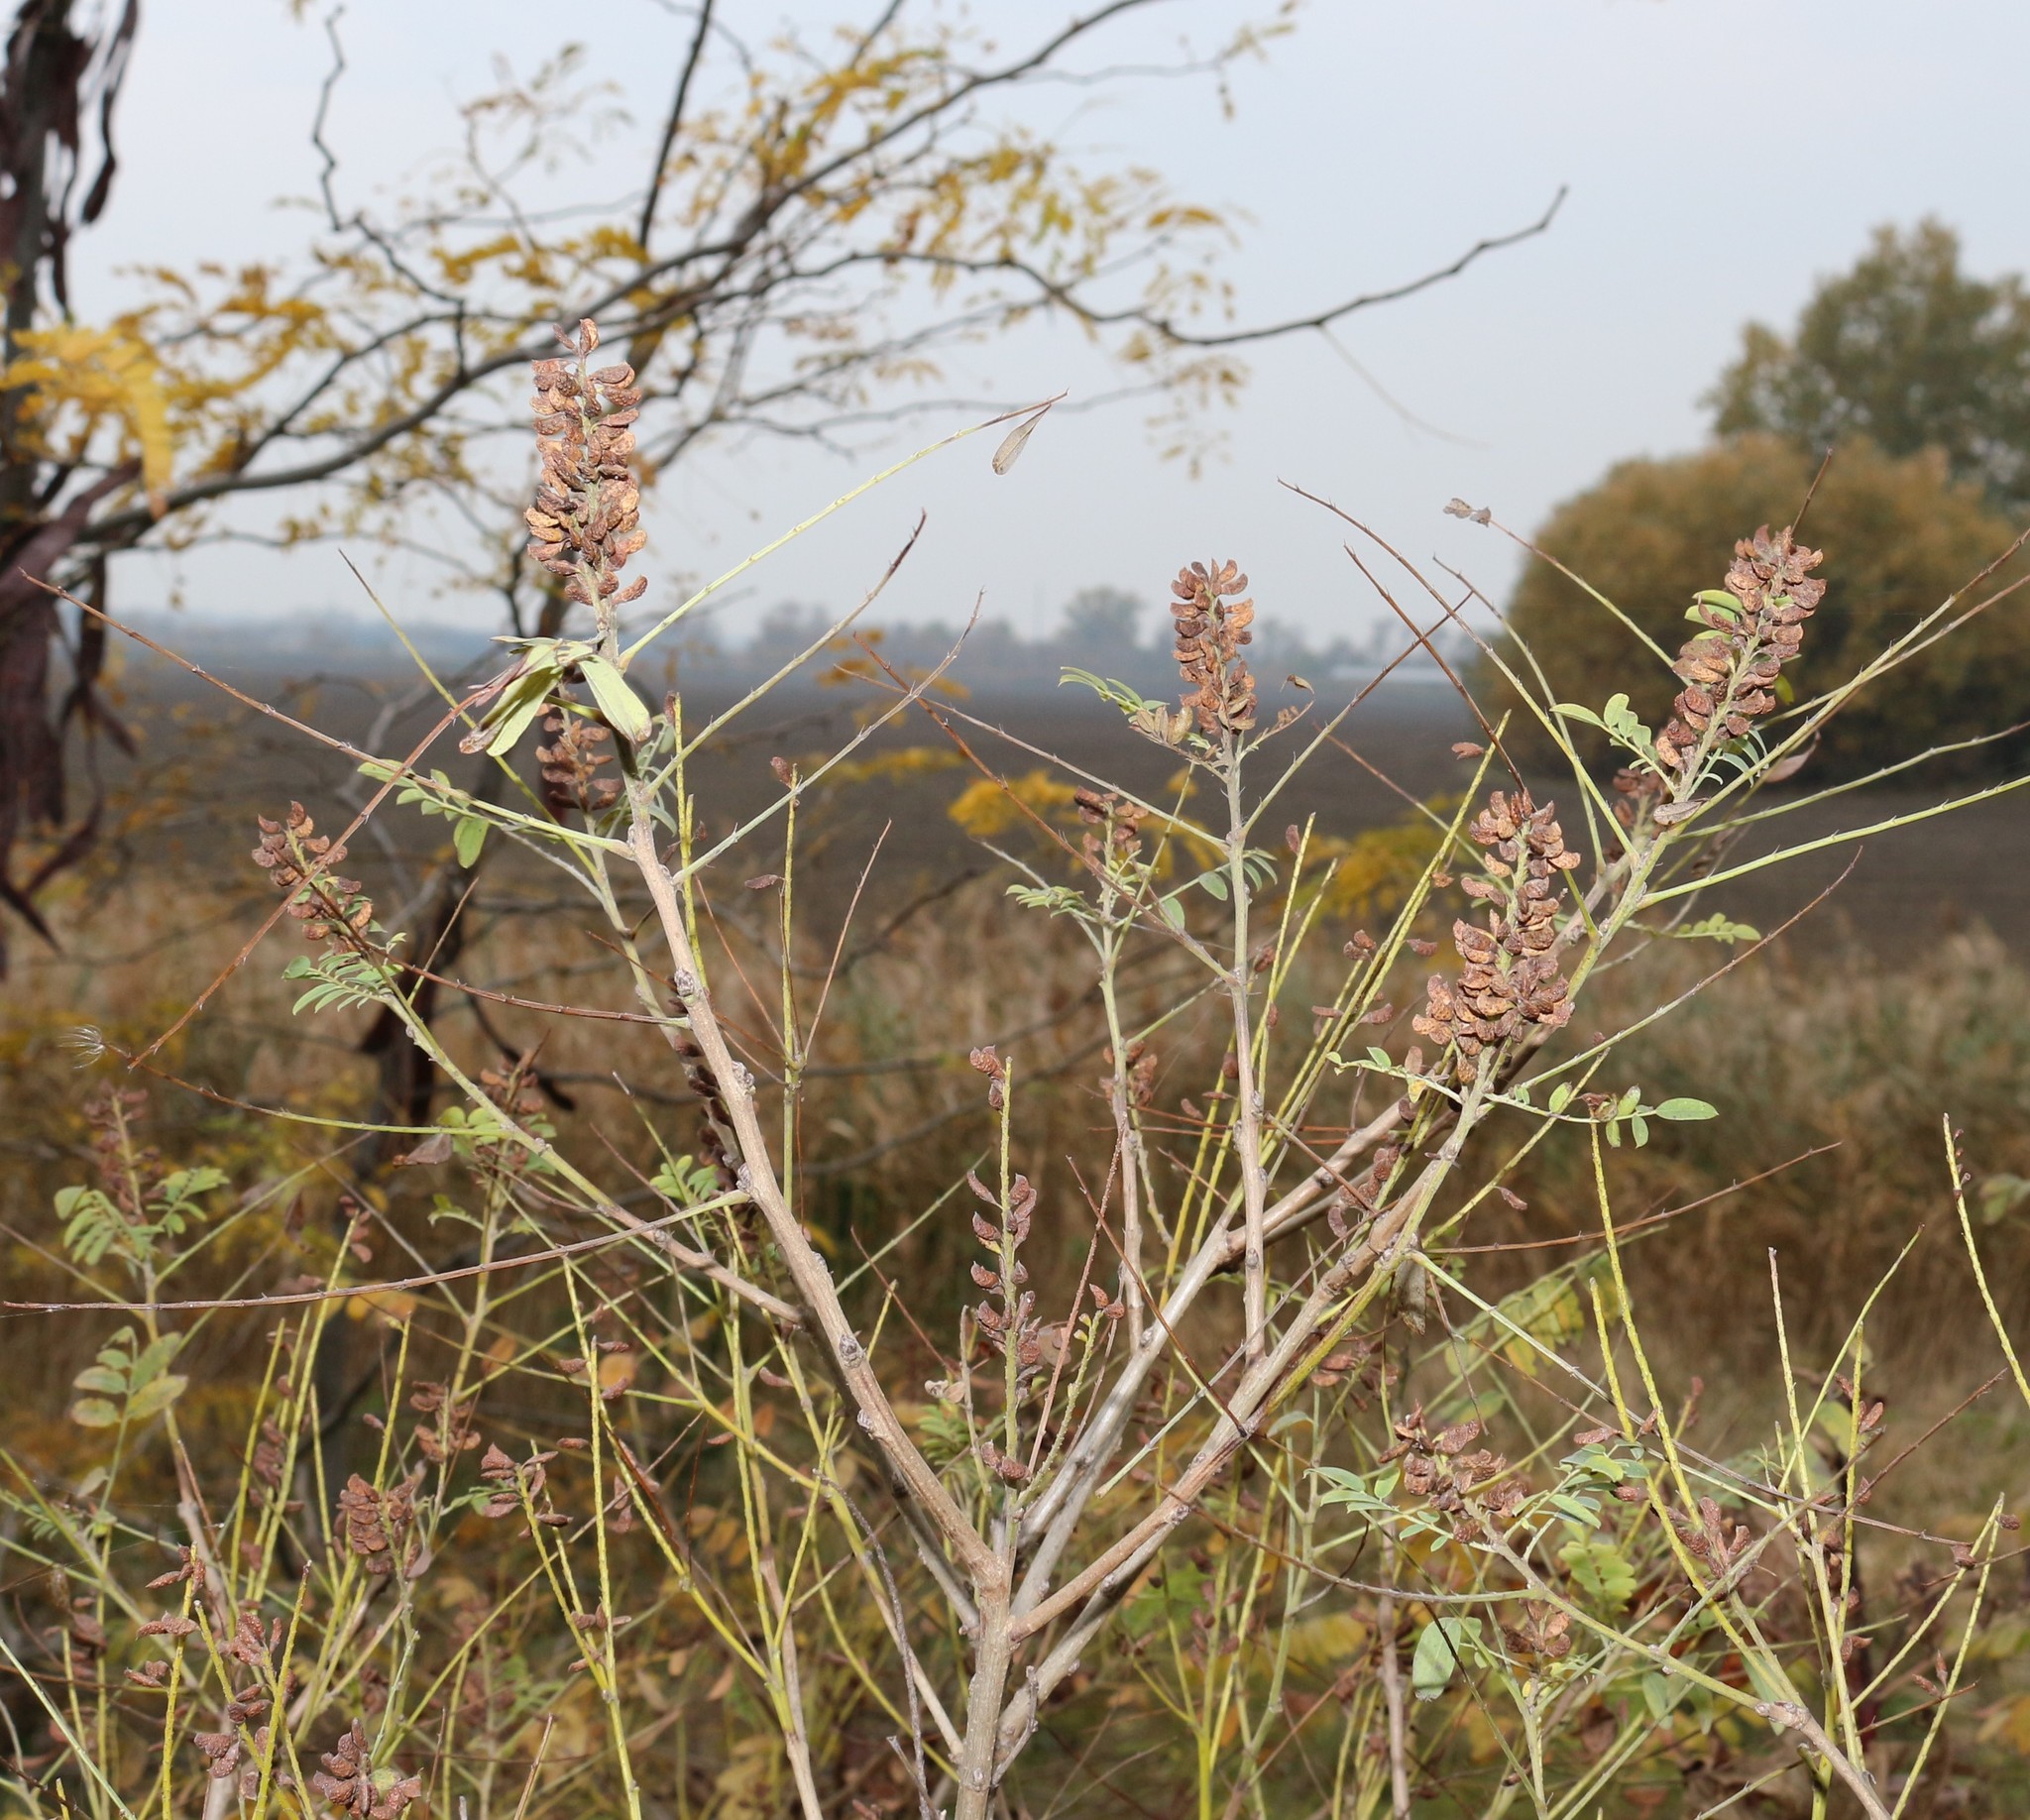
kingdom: Plantae
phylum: Tracheophyta
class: Magnoliopsida
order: Fabales
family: Fabaceae
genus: Amorpha
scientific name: Amorpha fruticosa
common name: False indigo
